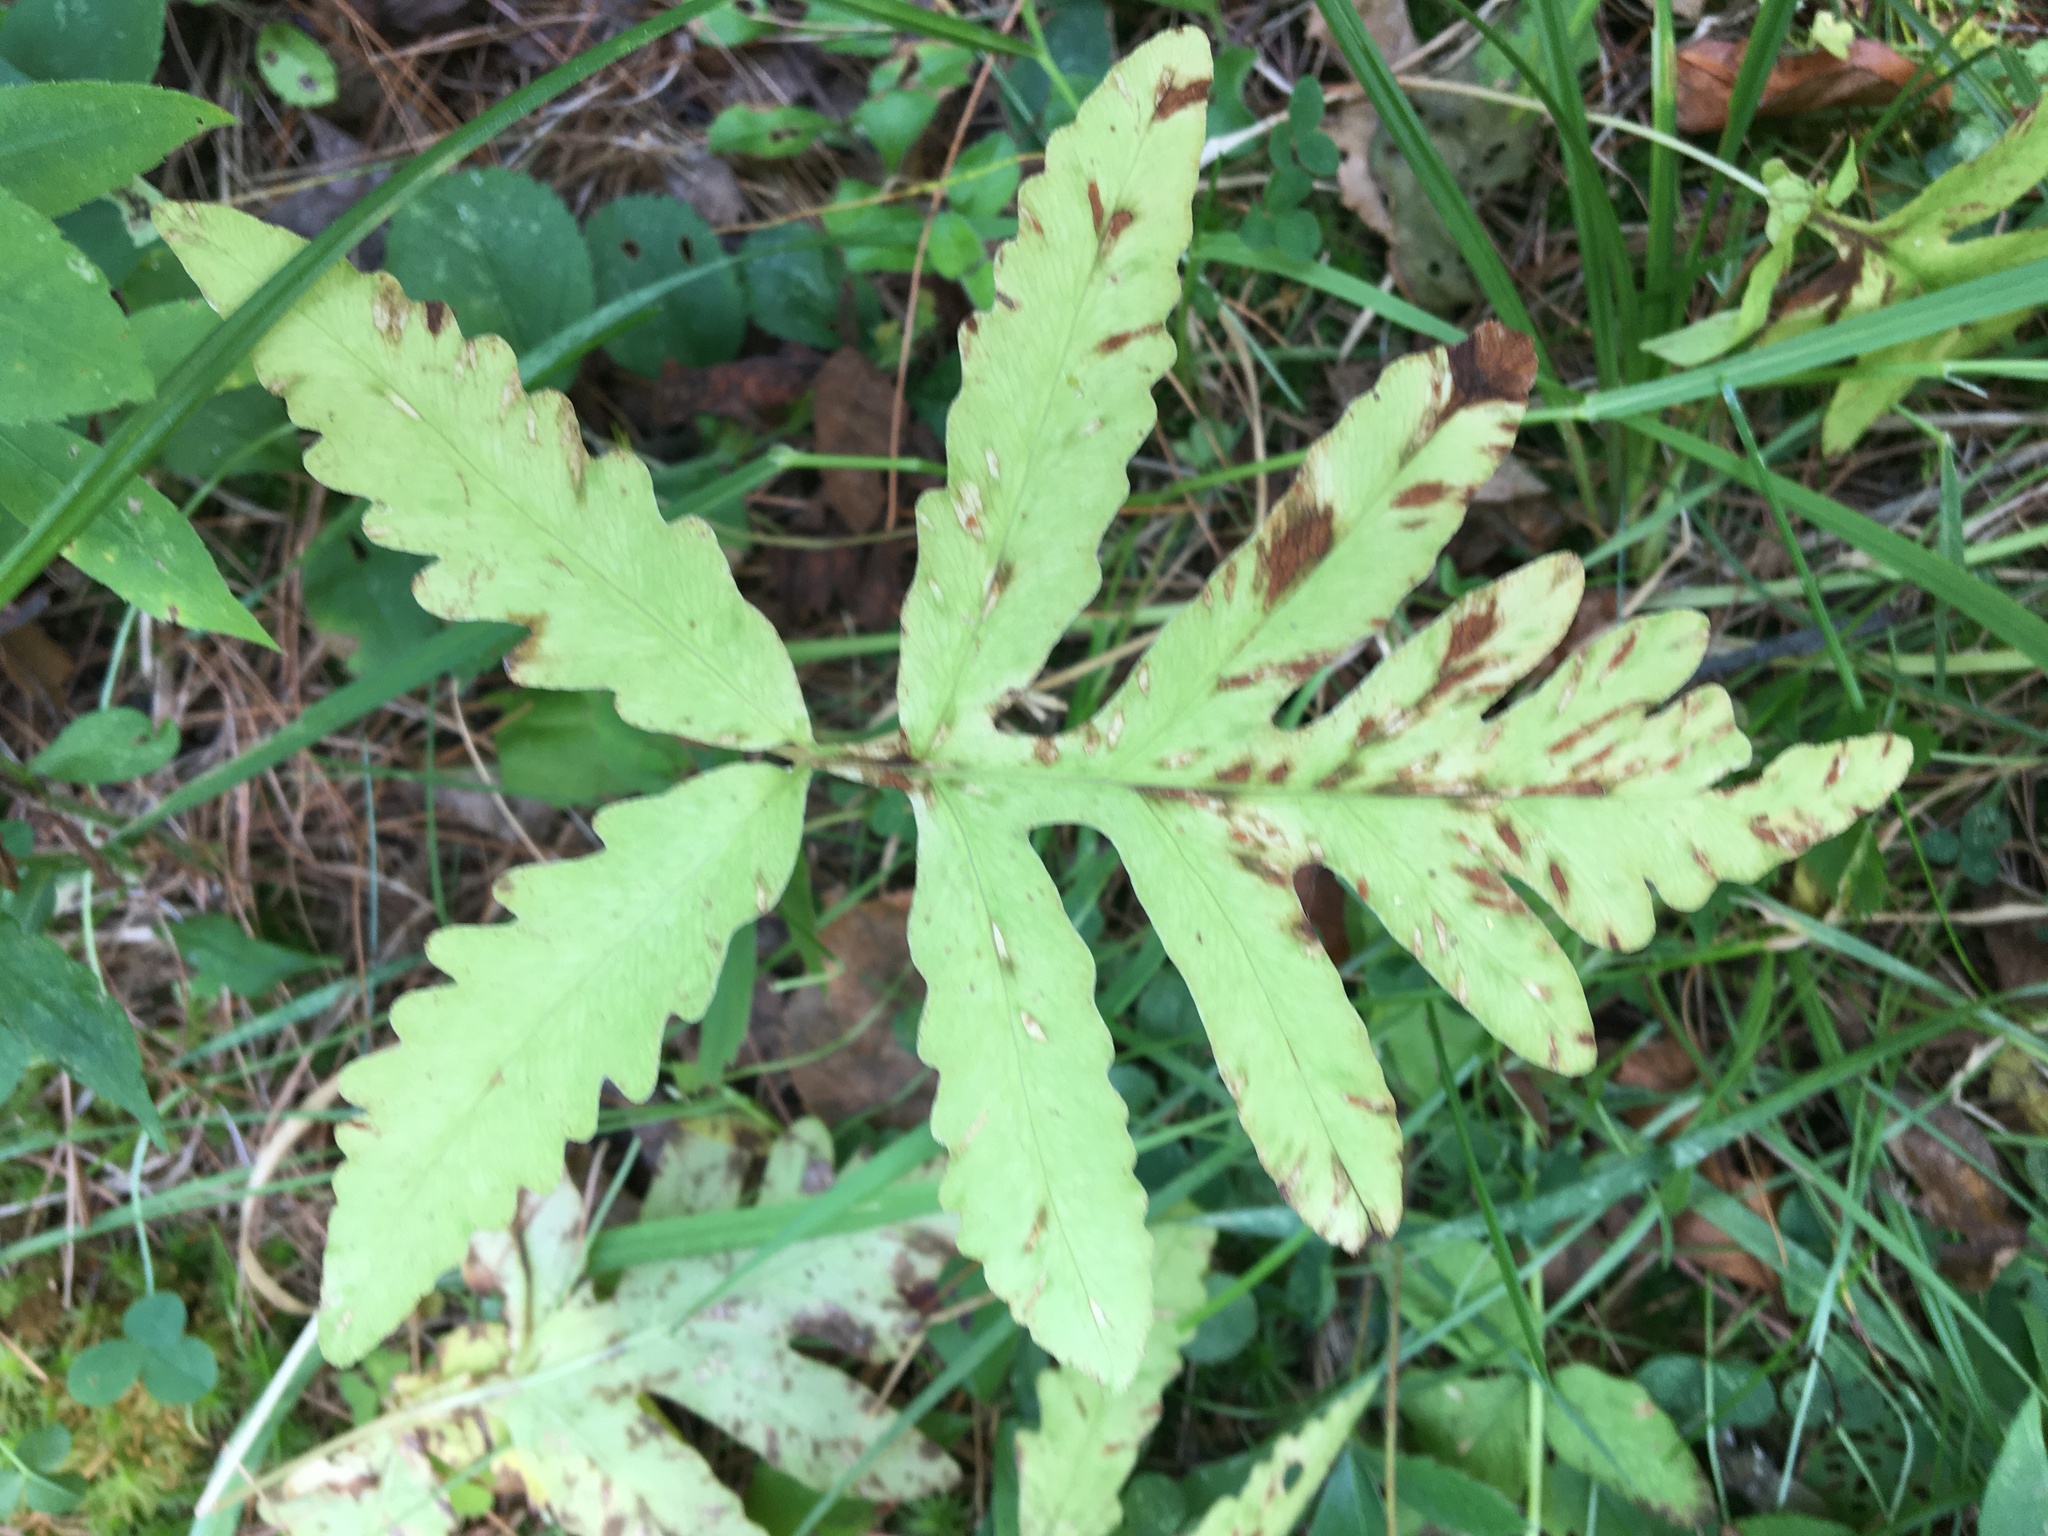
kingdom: Plantae
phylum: Tracheophyta
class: Polypodiopsida
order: Polypodiales
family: Onocleaceae
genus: Onoclea
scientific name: Onoclea sensibilis
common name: Sensitive fern
